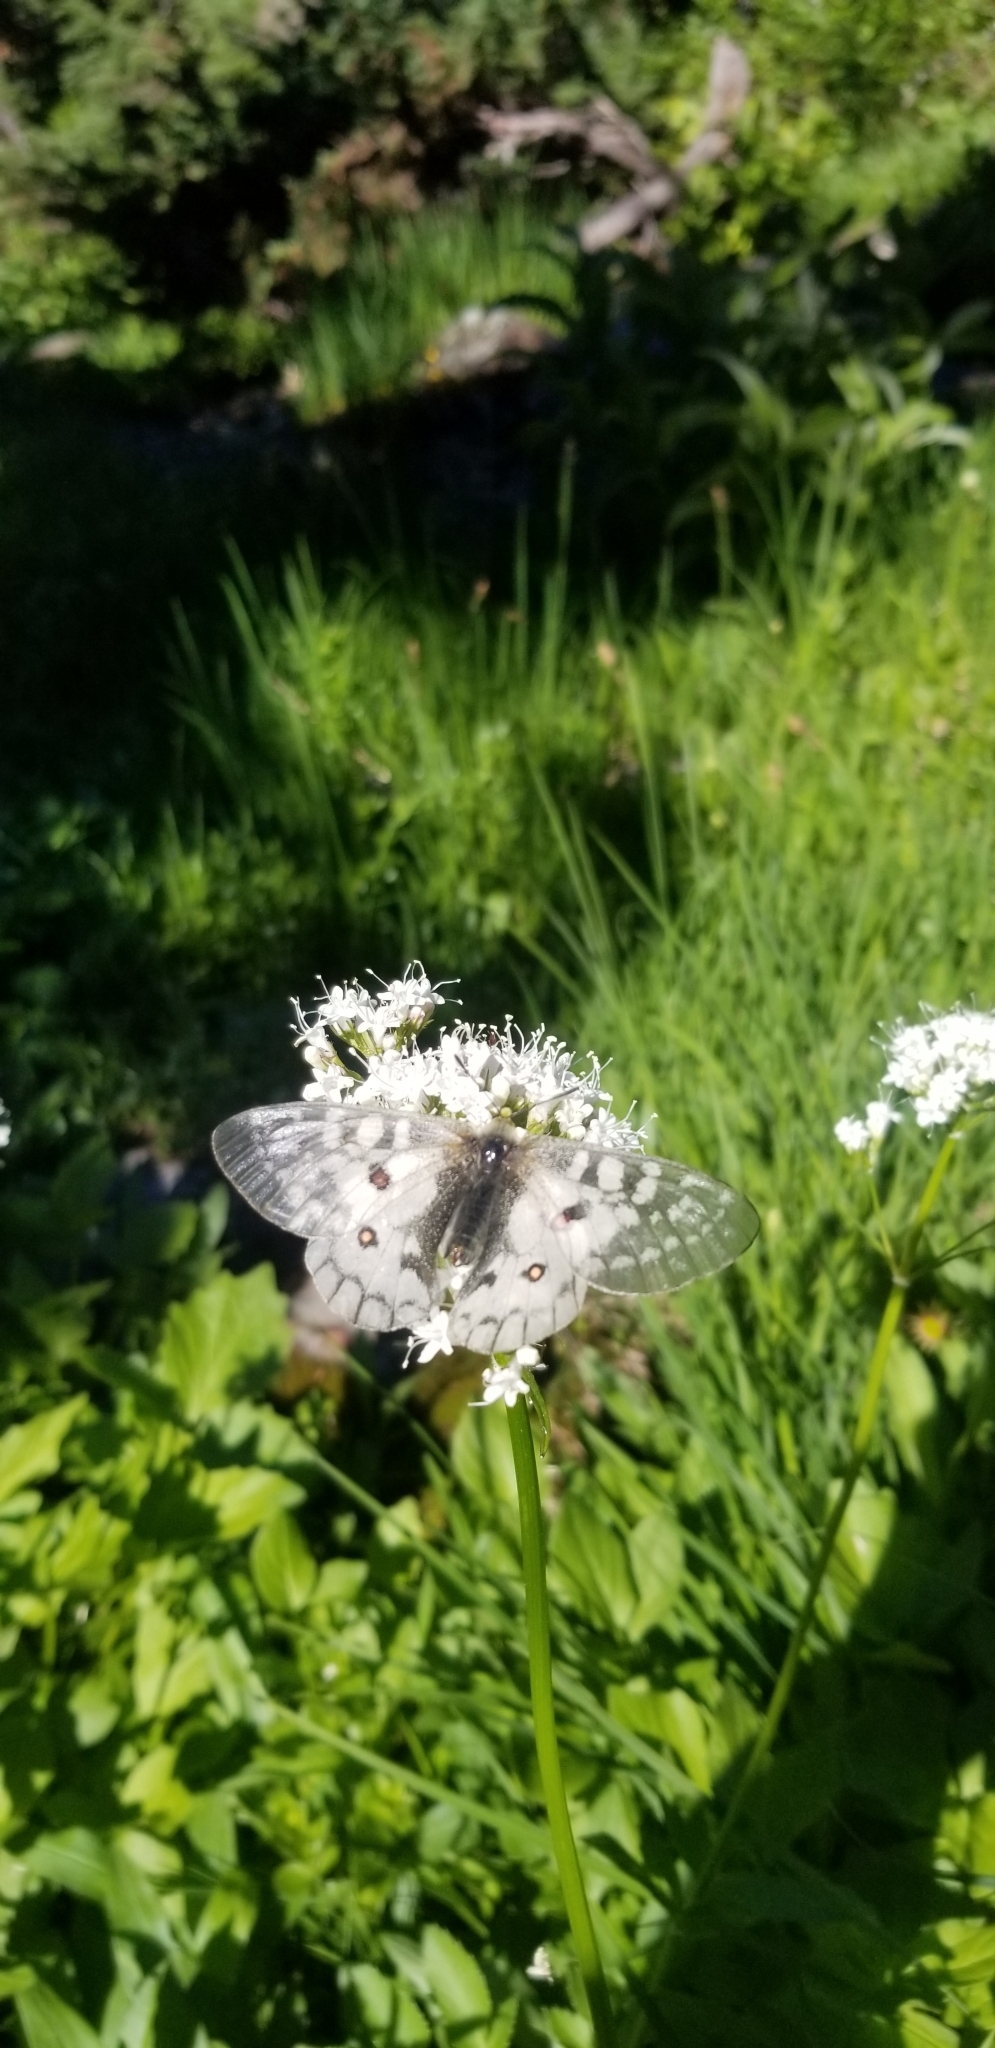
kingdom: Animalia
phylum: Arthropoda
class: Insecta
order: Lepidoptera
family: Papilionidae
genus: Parnassius
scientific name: Parnassius clodius
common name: American apollo
